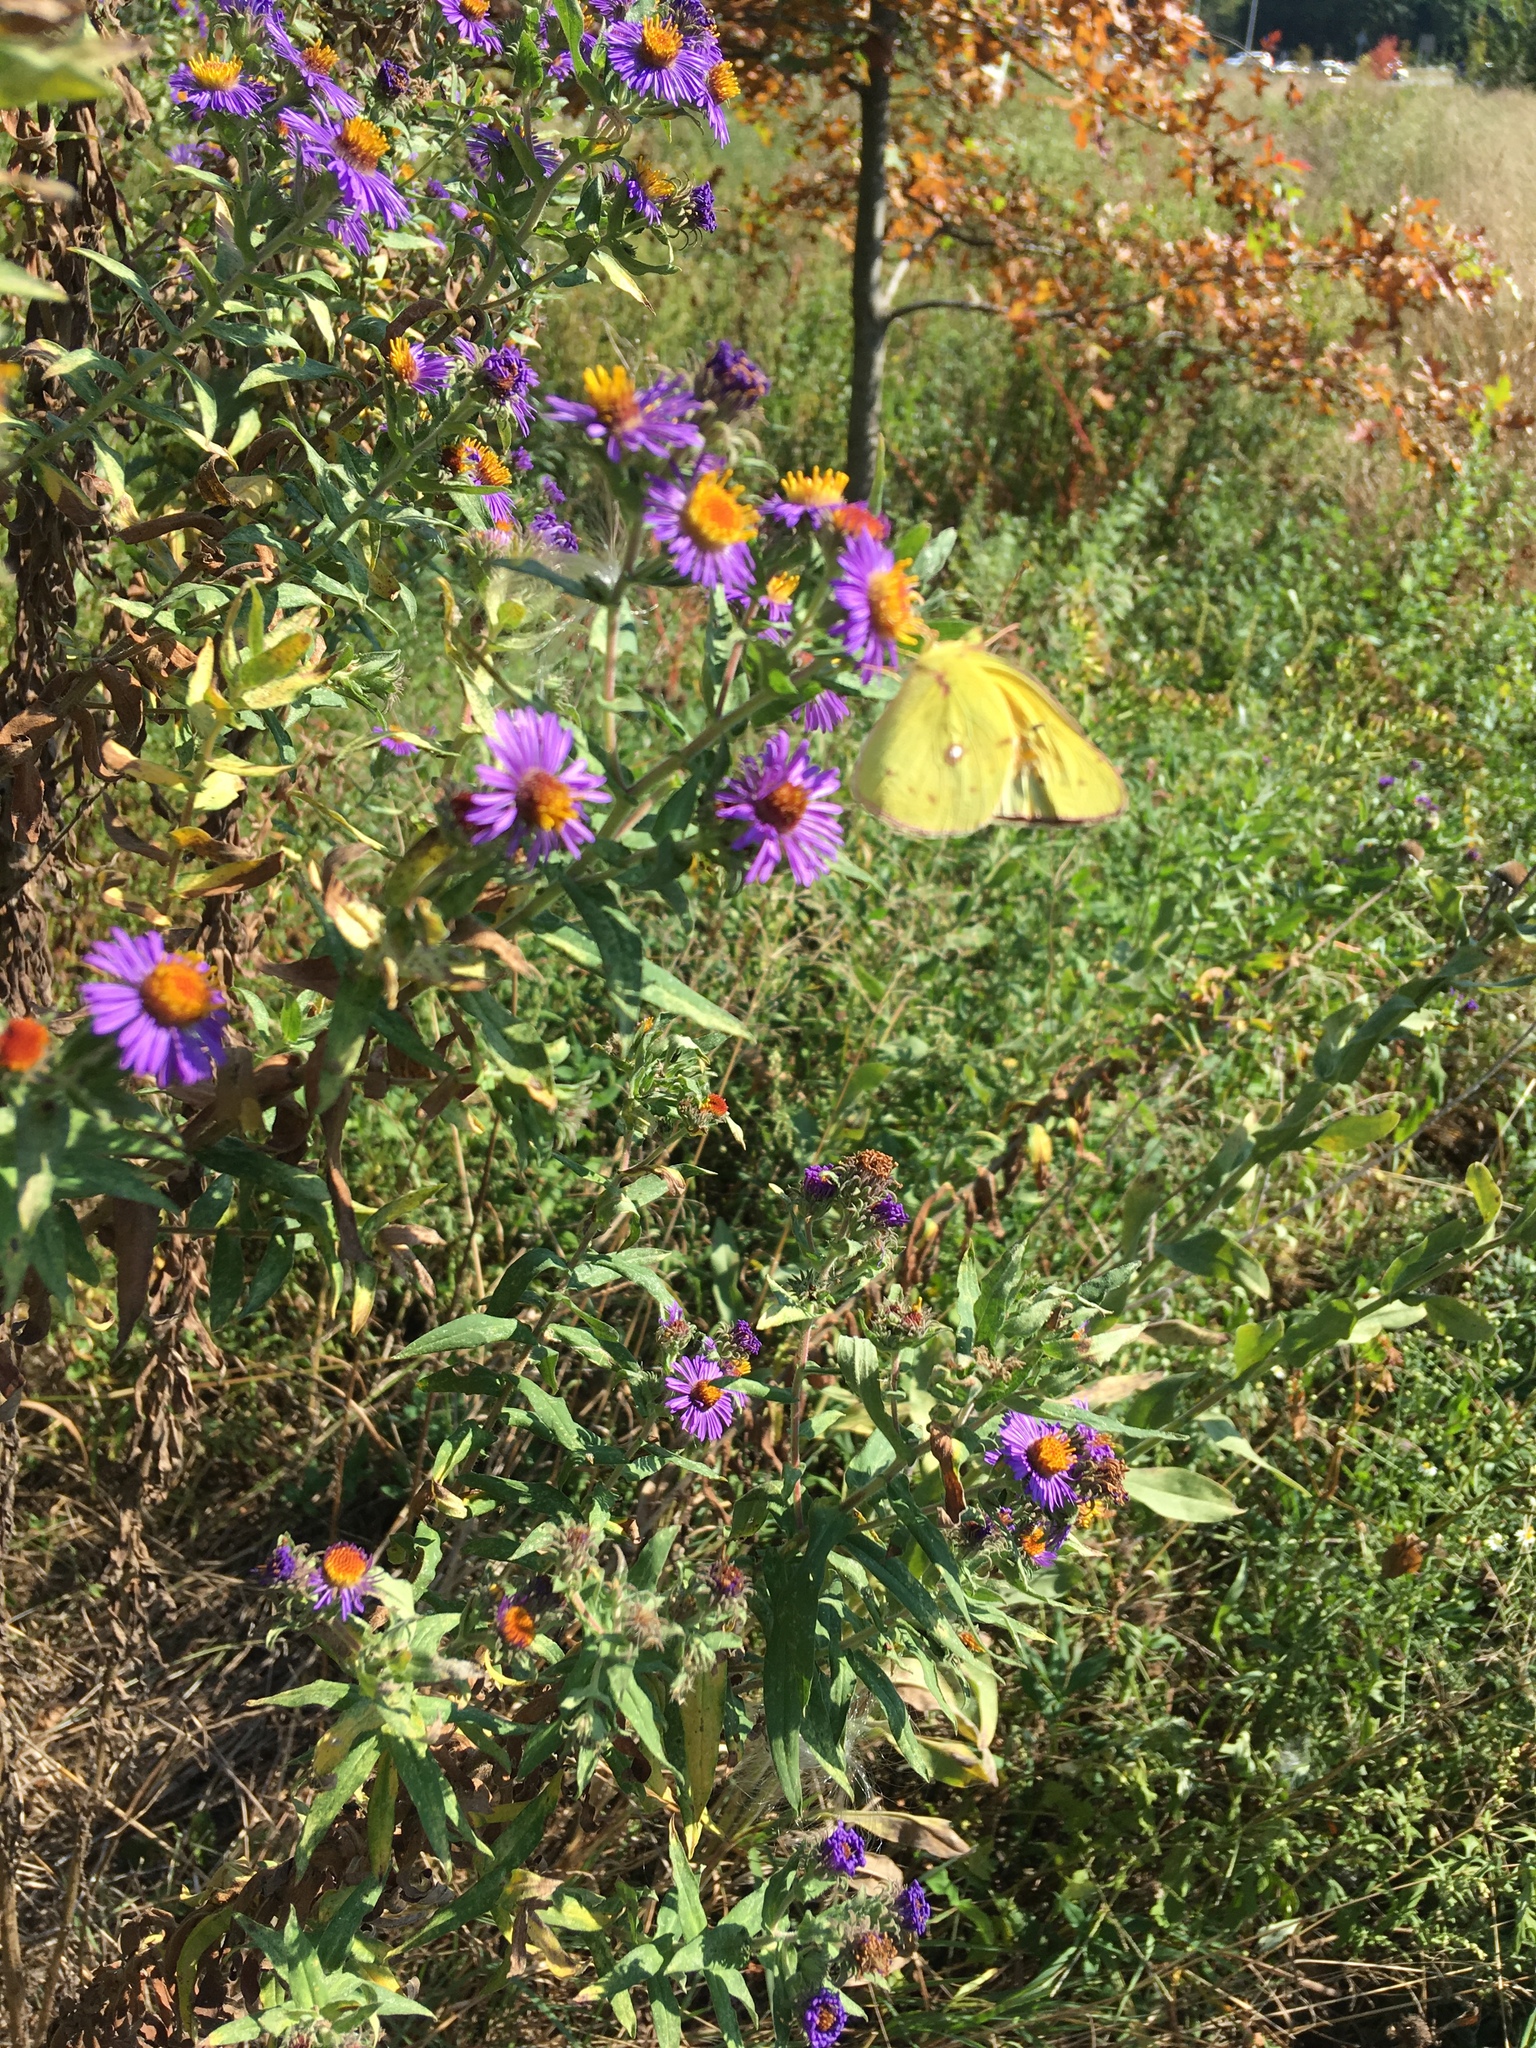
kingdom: Animalia
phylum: Arthropoda
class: Insecta
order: Lepidoptera
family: Pieridae
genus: Colias
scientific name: Colias eurytheme
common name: Alfalfa butterfly
